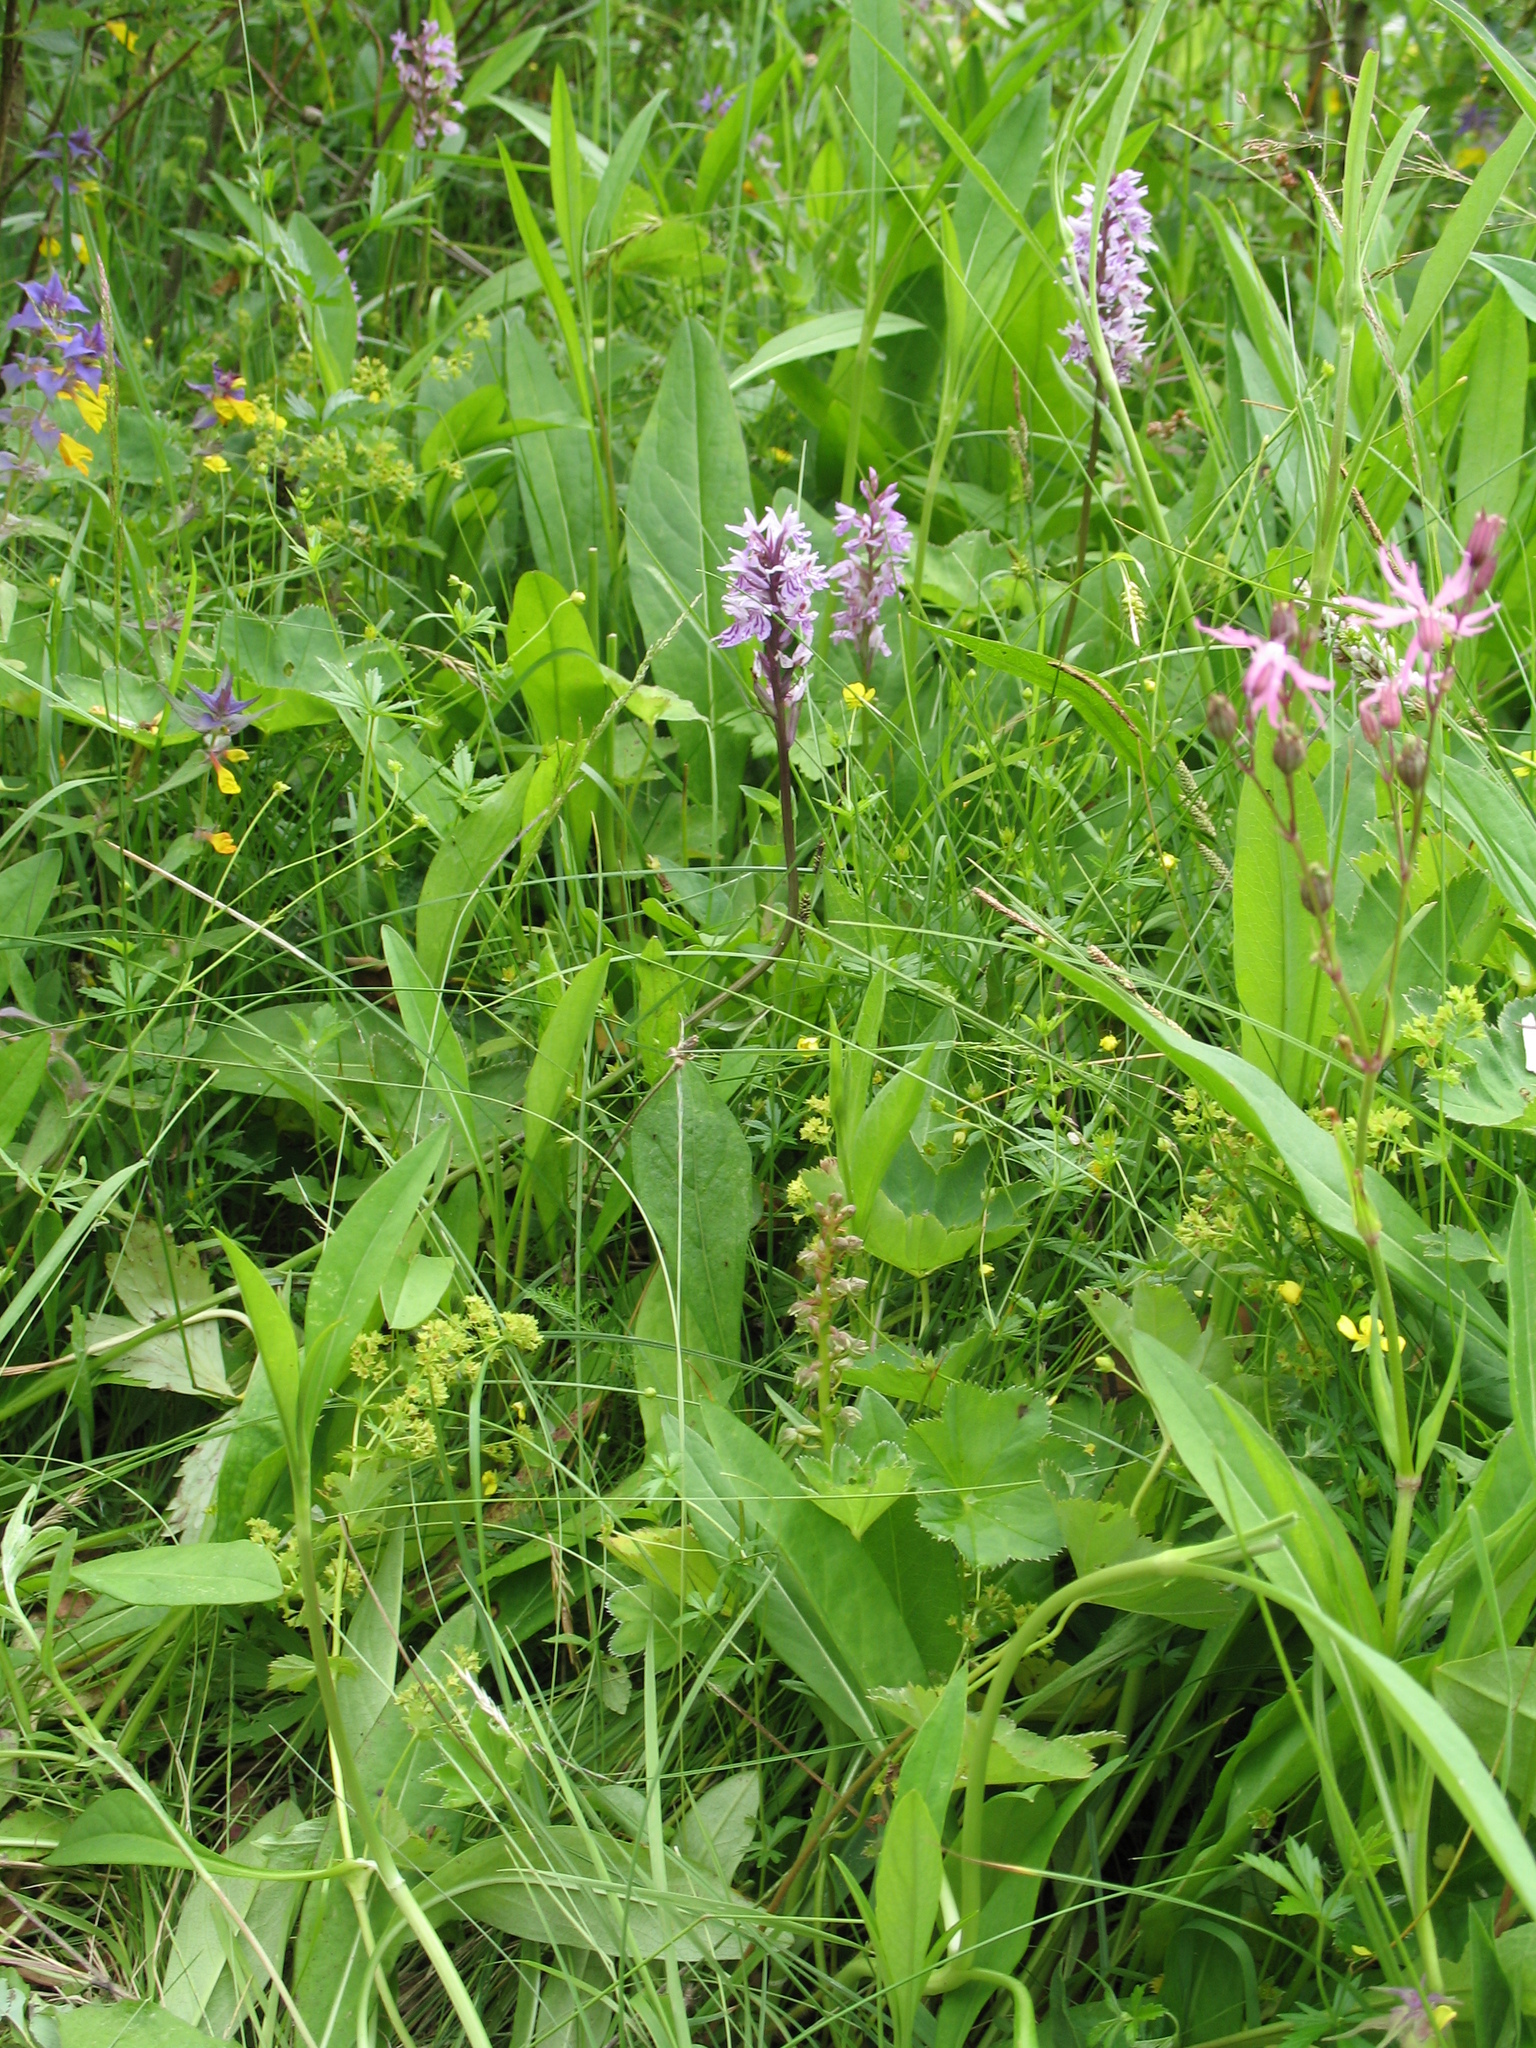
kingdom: Plantae
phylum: Tracheophyta
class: Liliopsida
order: Asparagales
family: Orchidaceae
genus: Dactylorhiza
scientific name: Dactylorhiza viridis
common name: Longbract frog orchid
